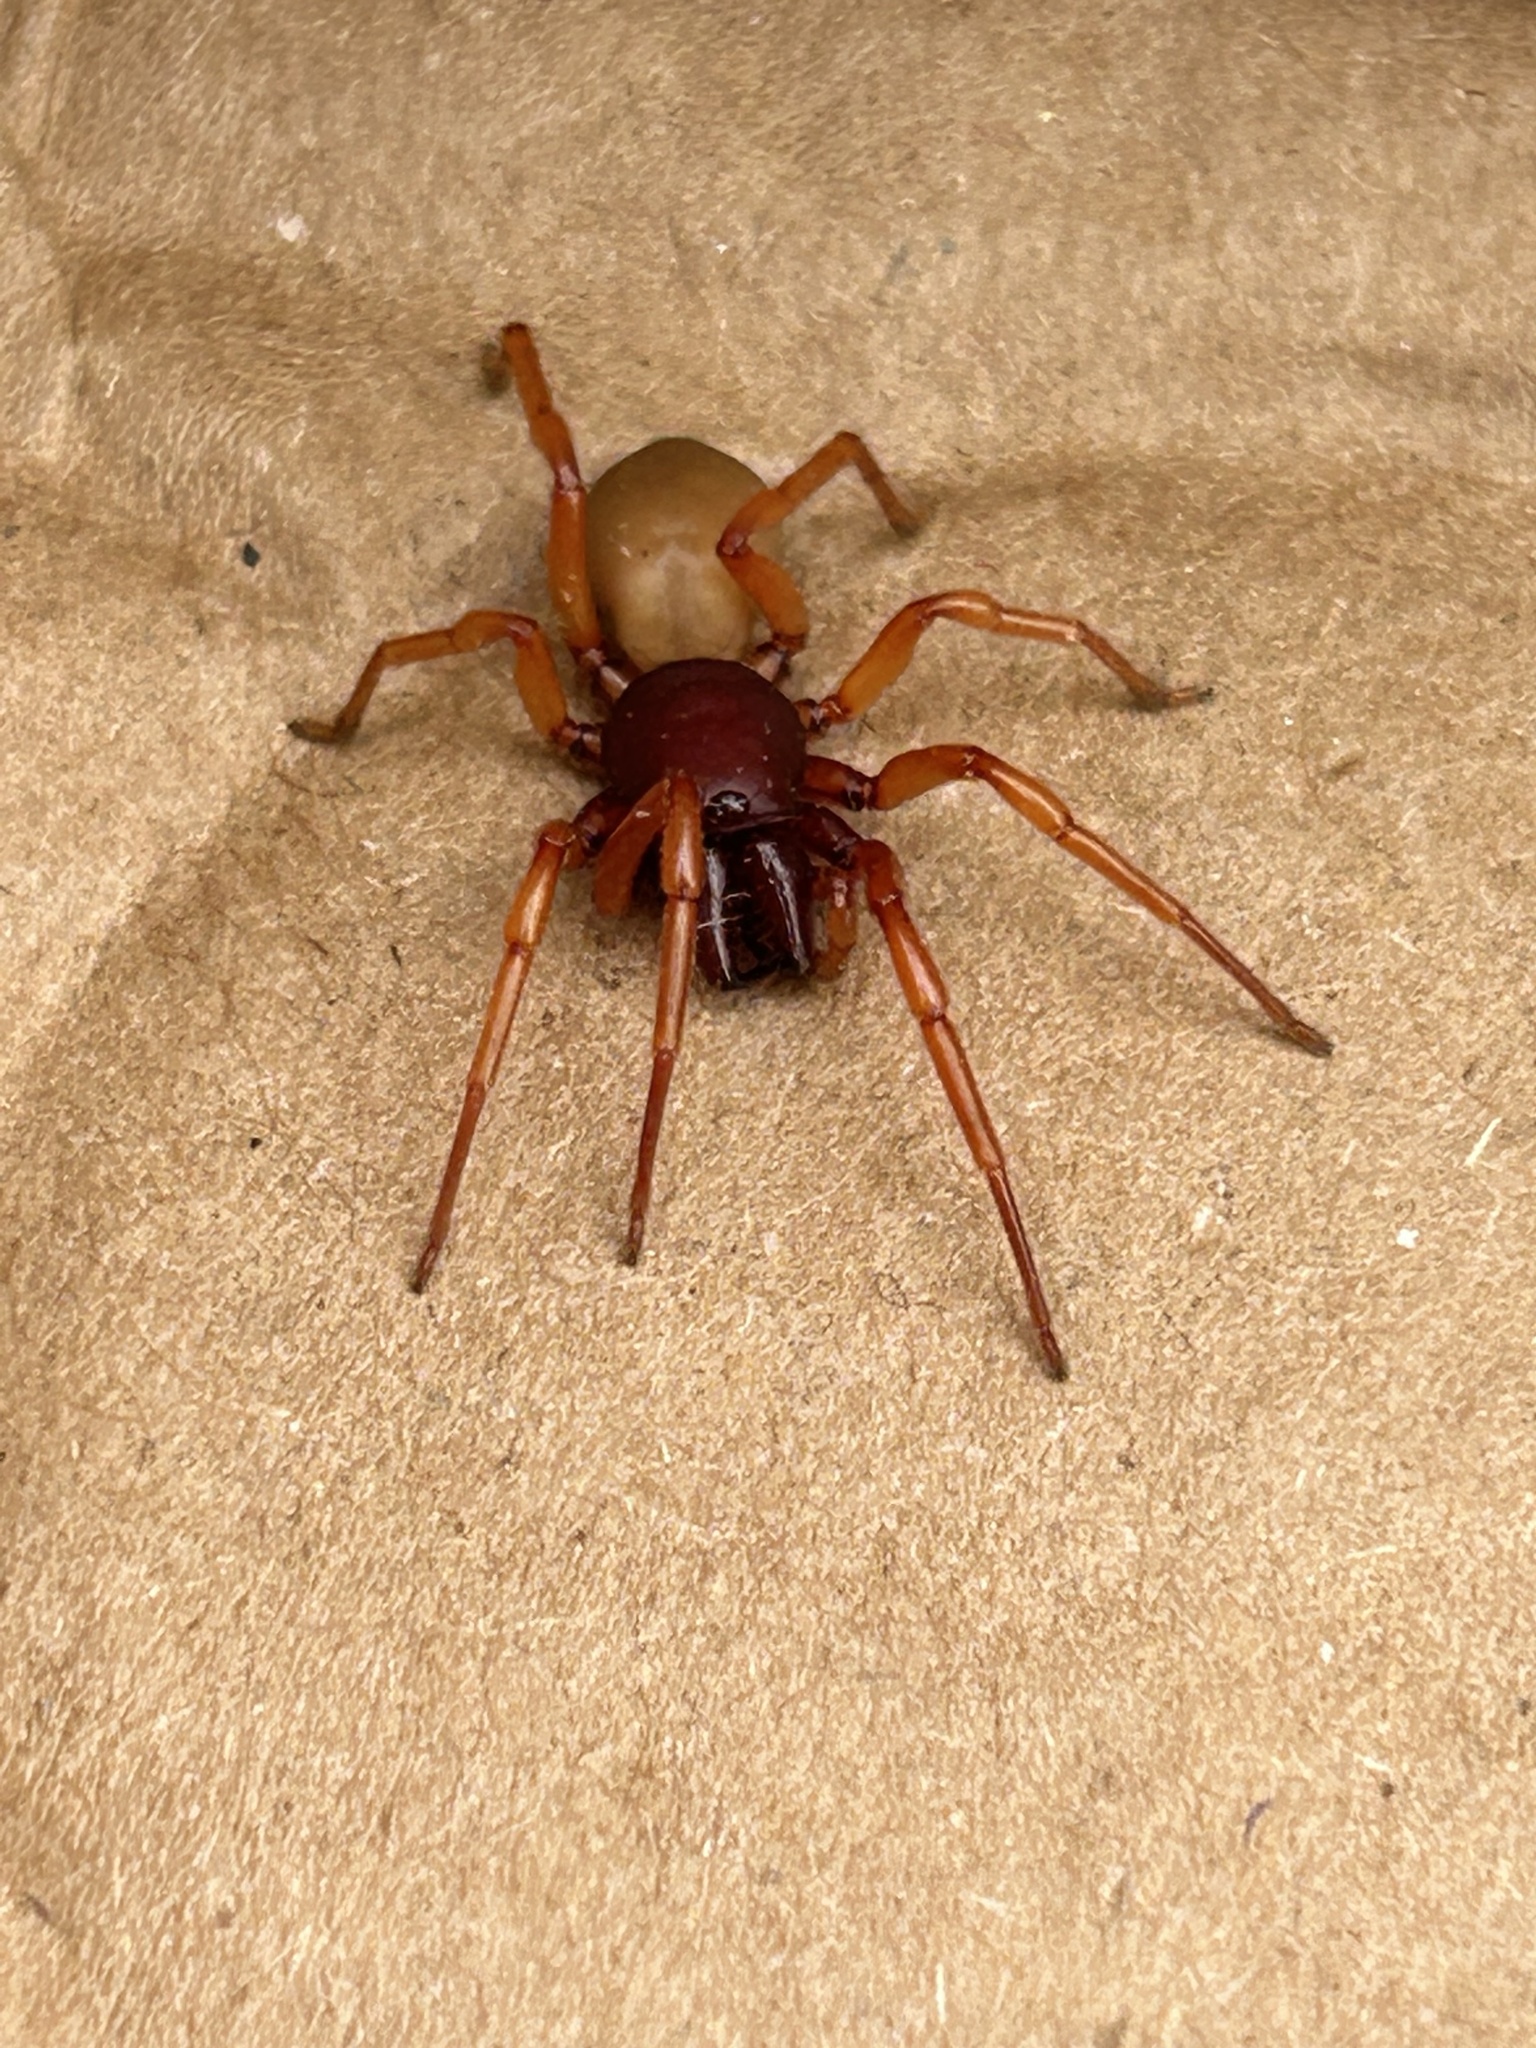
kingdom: Animalia
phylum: Arthropoda
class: Arachnida
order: Araneae
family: Dysderidae
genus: Dysdera
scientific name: Dysdera crocata
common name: Woodlouse spider
